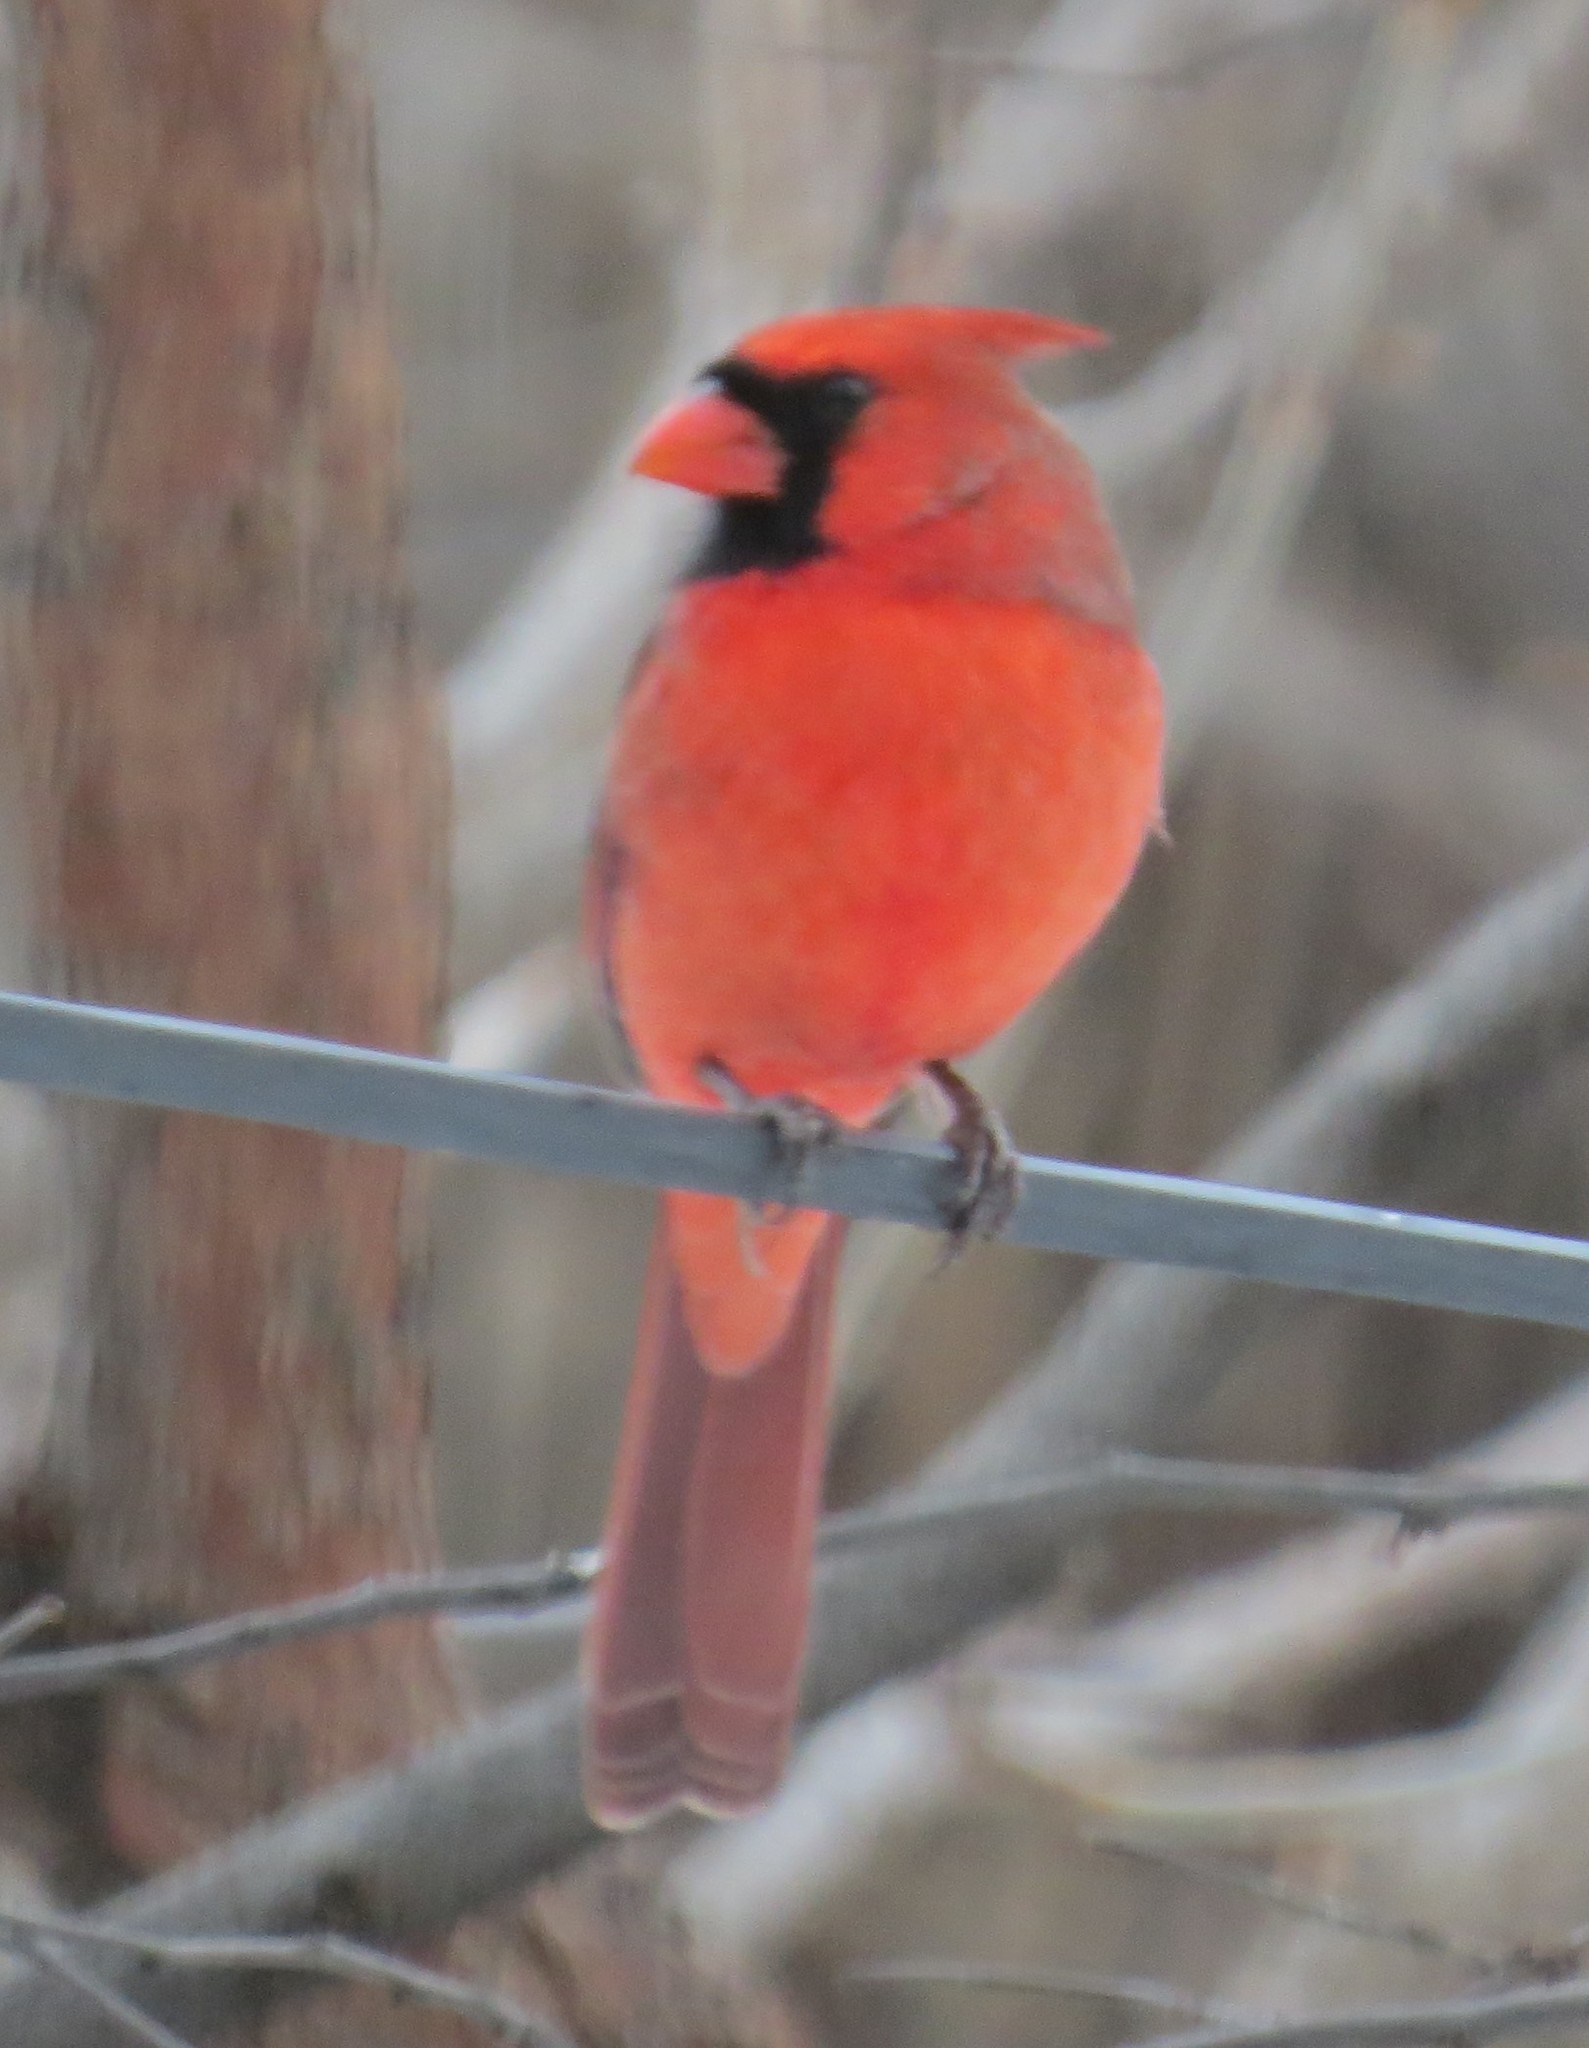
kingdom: Animalia
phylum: Chordata
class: Aves
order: Passeriformes
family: Cardinalidae
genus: Cardinalis
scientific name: Cardinalis cardinalis
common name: Northern cardinal
